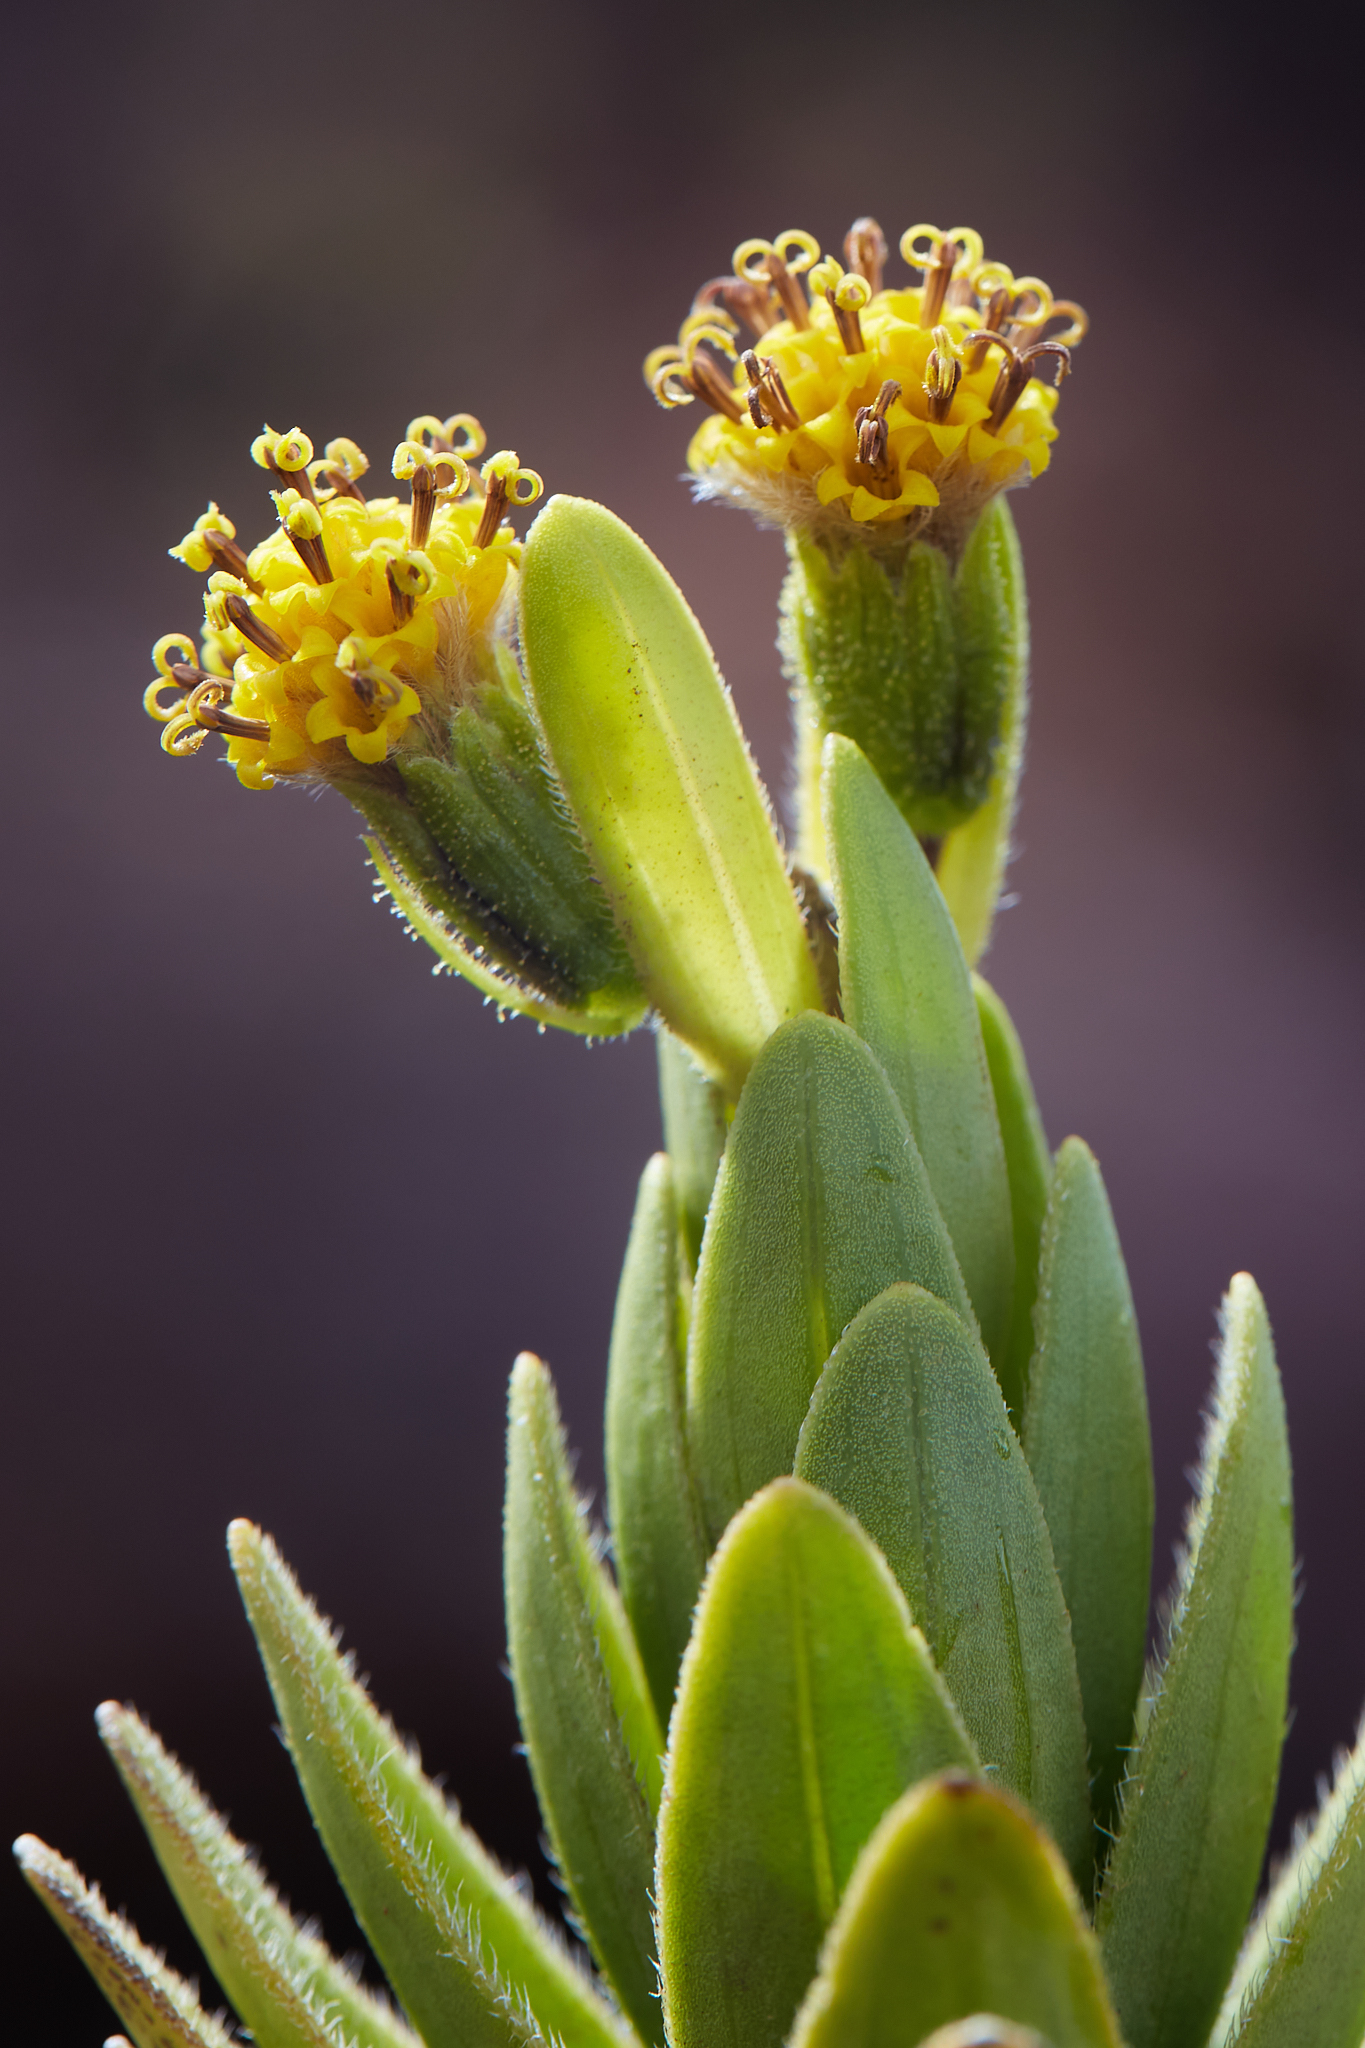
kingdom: Plantae
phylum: Tracheophyta
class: Magnoliopsida
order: Asterales
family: Asteraceae
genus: Dubautia
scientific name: Dubautia menziesii
